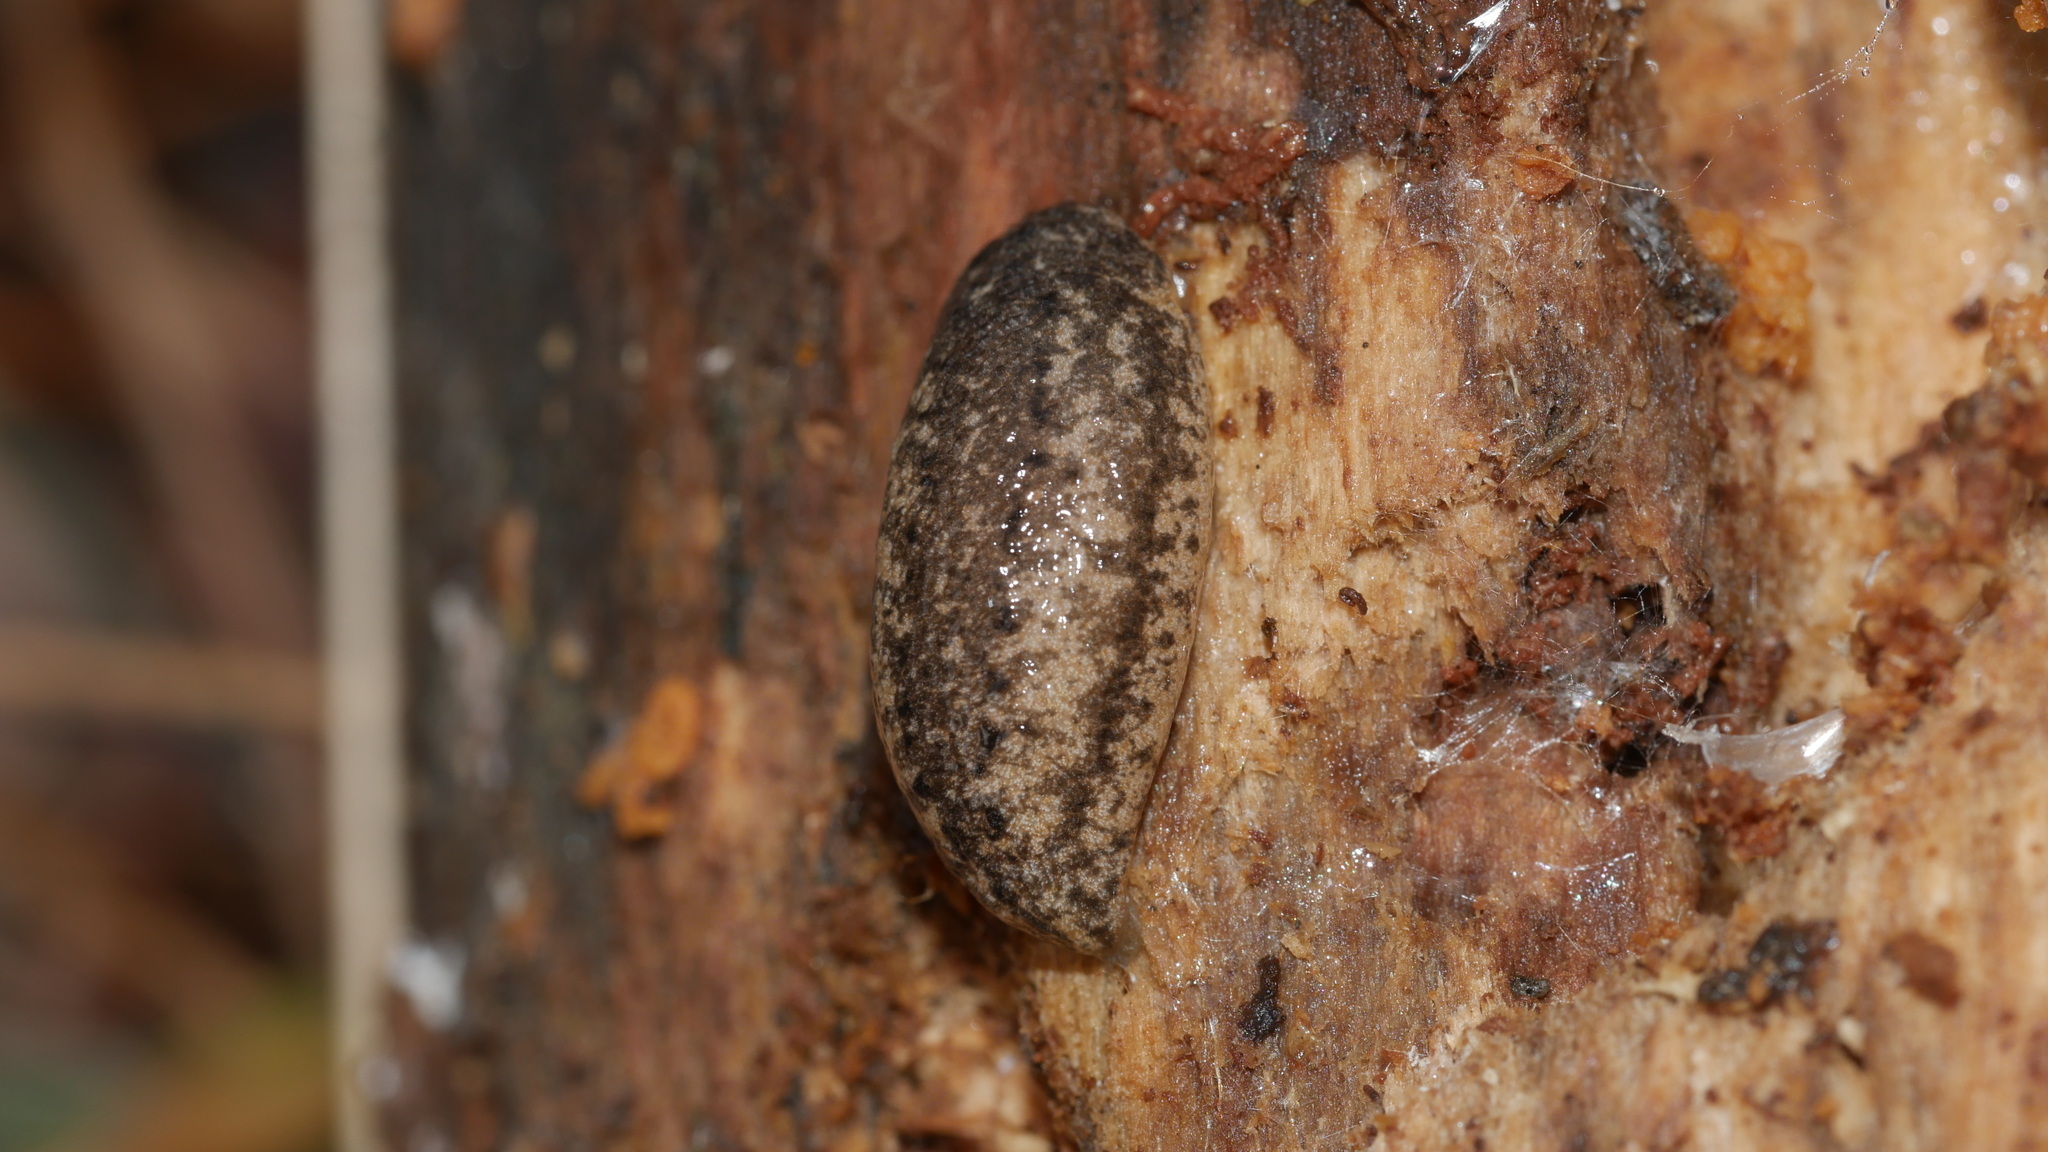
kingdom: Animalia
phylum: Mollusca
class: Gastropoda
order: Stylommatophora
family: Philomycidae
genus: Philomycus
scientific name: Philomycus
